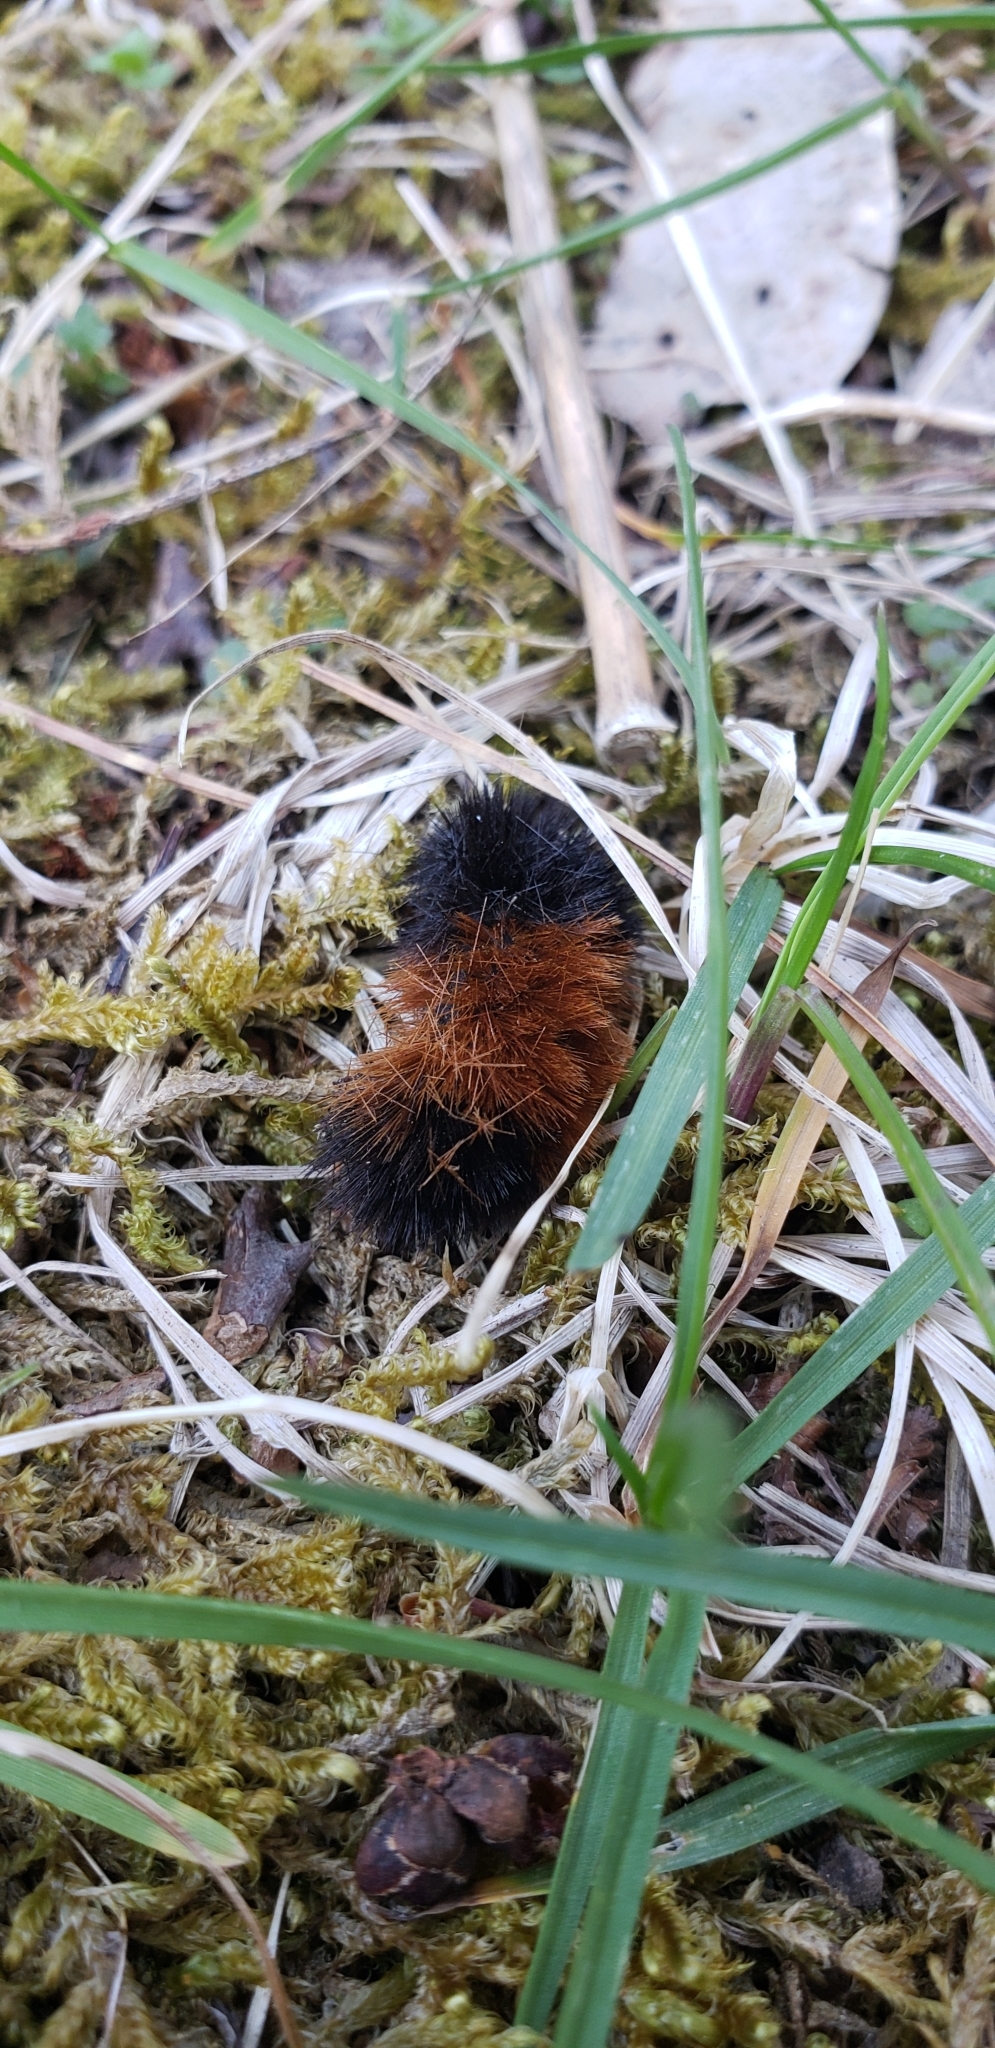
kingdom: Animalia
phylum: Arthropoda
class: Insecta
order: Lepidoptera
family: Erebidae
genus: Pyrrharctia
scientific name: Pyrrharctia isabella
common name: Isabella tiger moth
